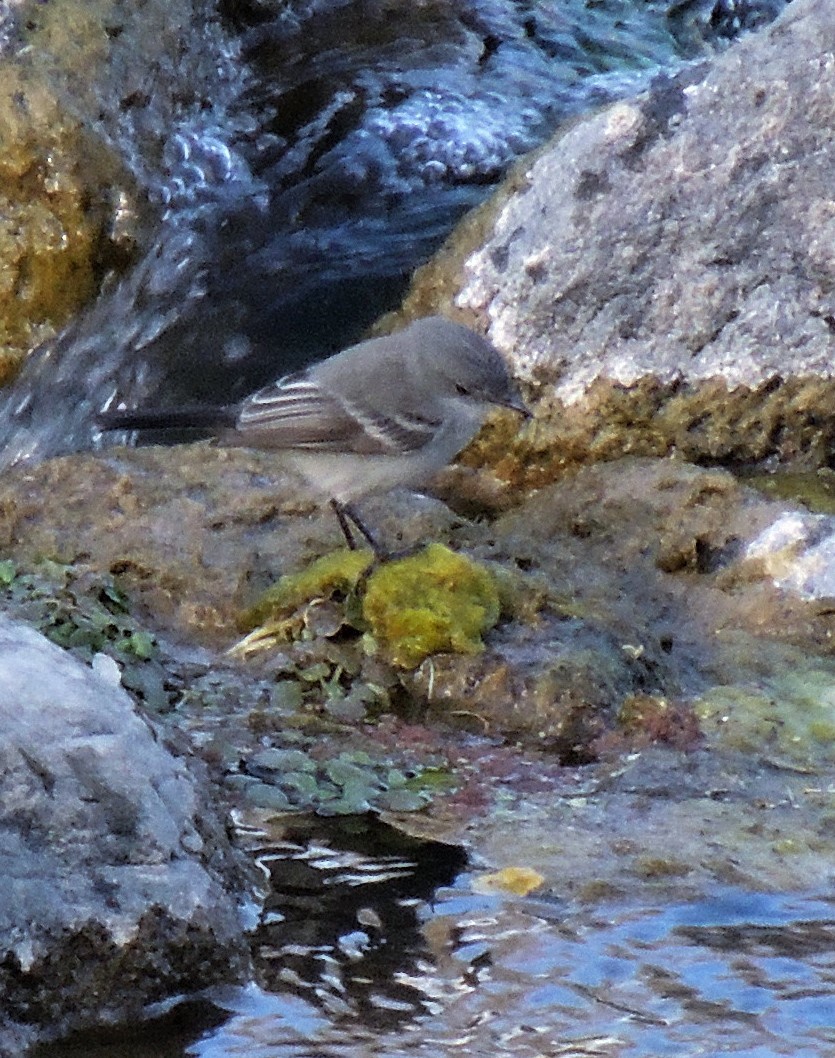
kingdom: Animalia
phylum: Chordata
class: Aves
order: Passeriformes
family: Tyrannidae
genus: Serpophaga
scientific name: Serpophaga nigricans
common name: Sooty tyrannulet
